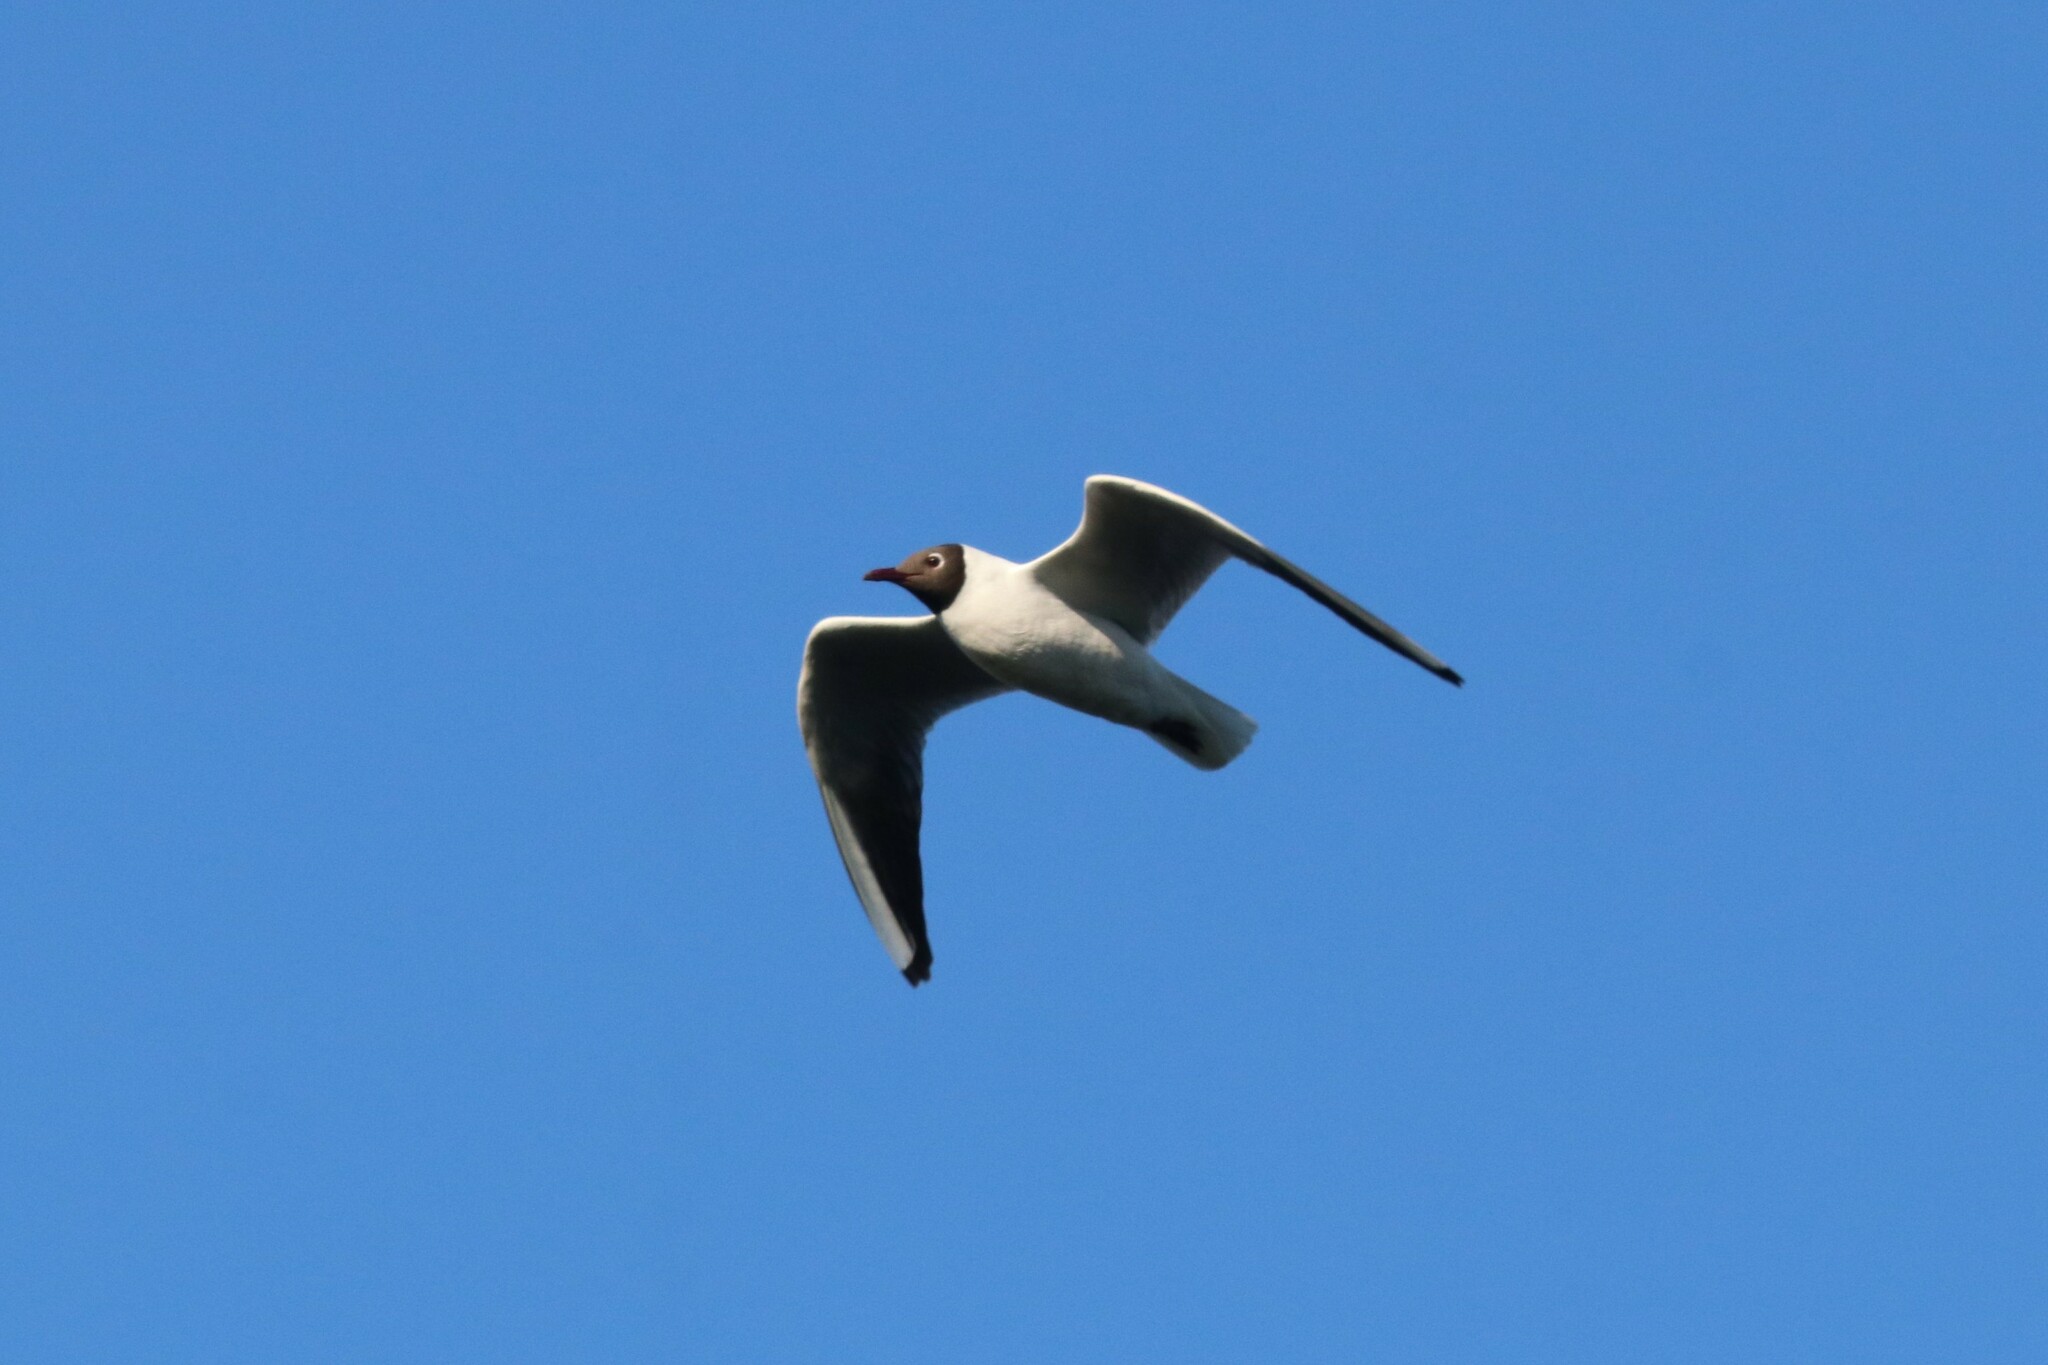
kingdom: Animalia
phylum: Chordata
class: Aves
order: Charadriiformes
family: Laridae
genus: Chroicocephalus
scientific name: Chroicocephalus ridibundus
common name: Black-headed gull
